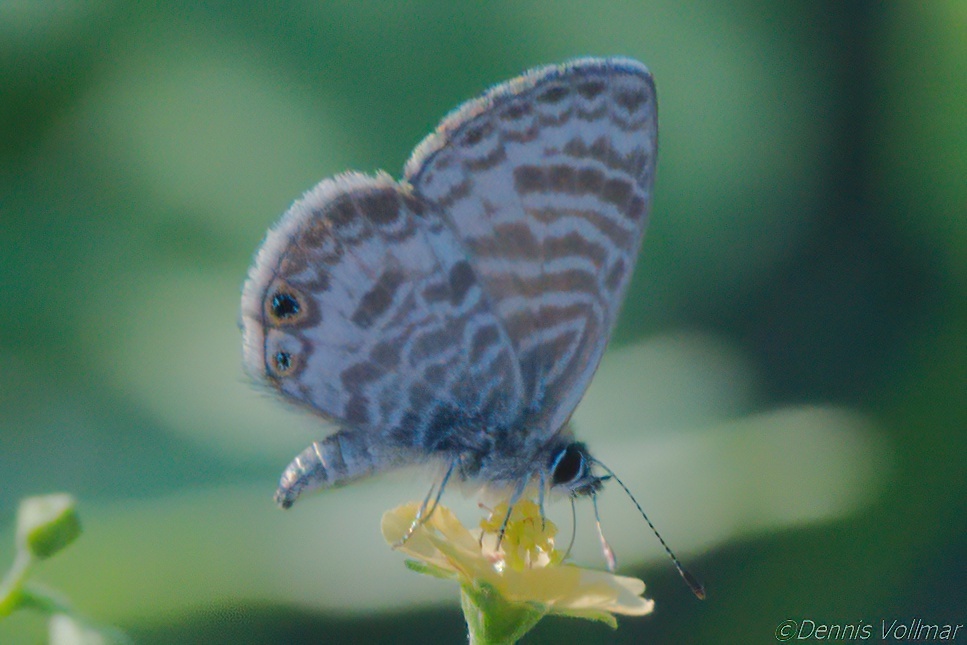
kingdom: Animalia
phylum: Arthropoda
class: Insecta
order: Lepidoptera
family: Lycaenidae
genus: Leptotes
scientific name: Leptotes marina
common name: Marine blue
